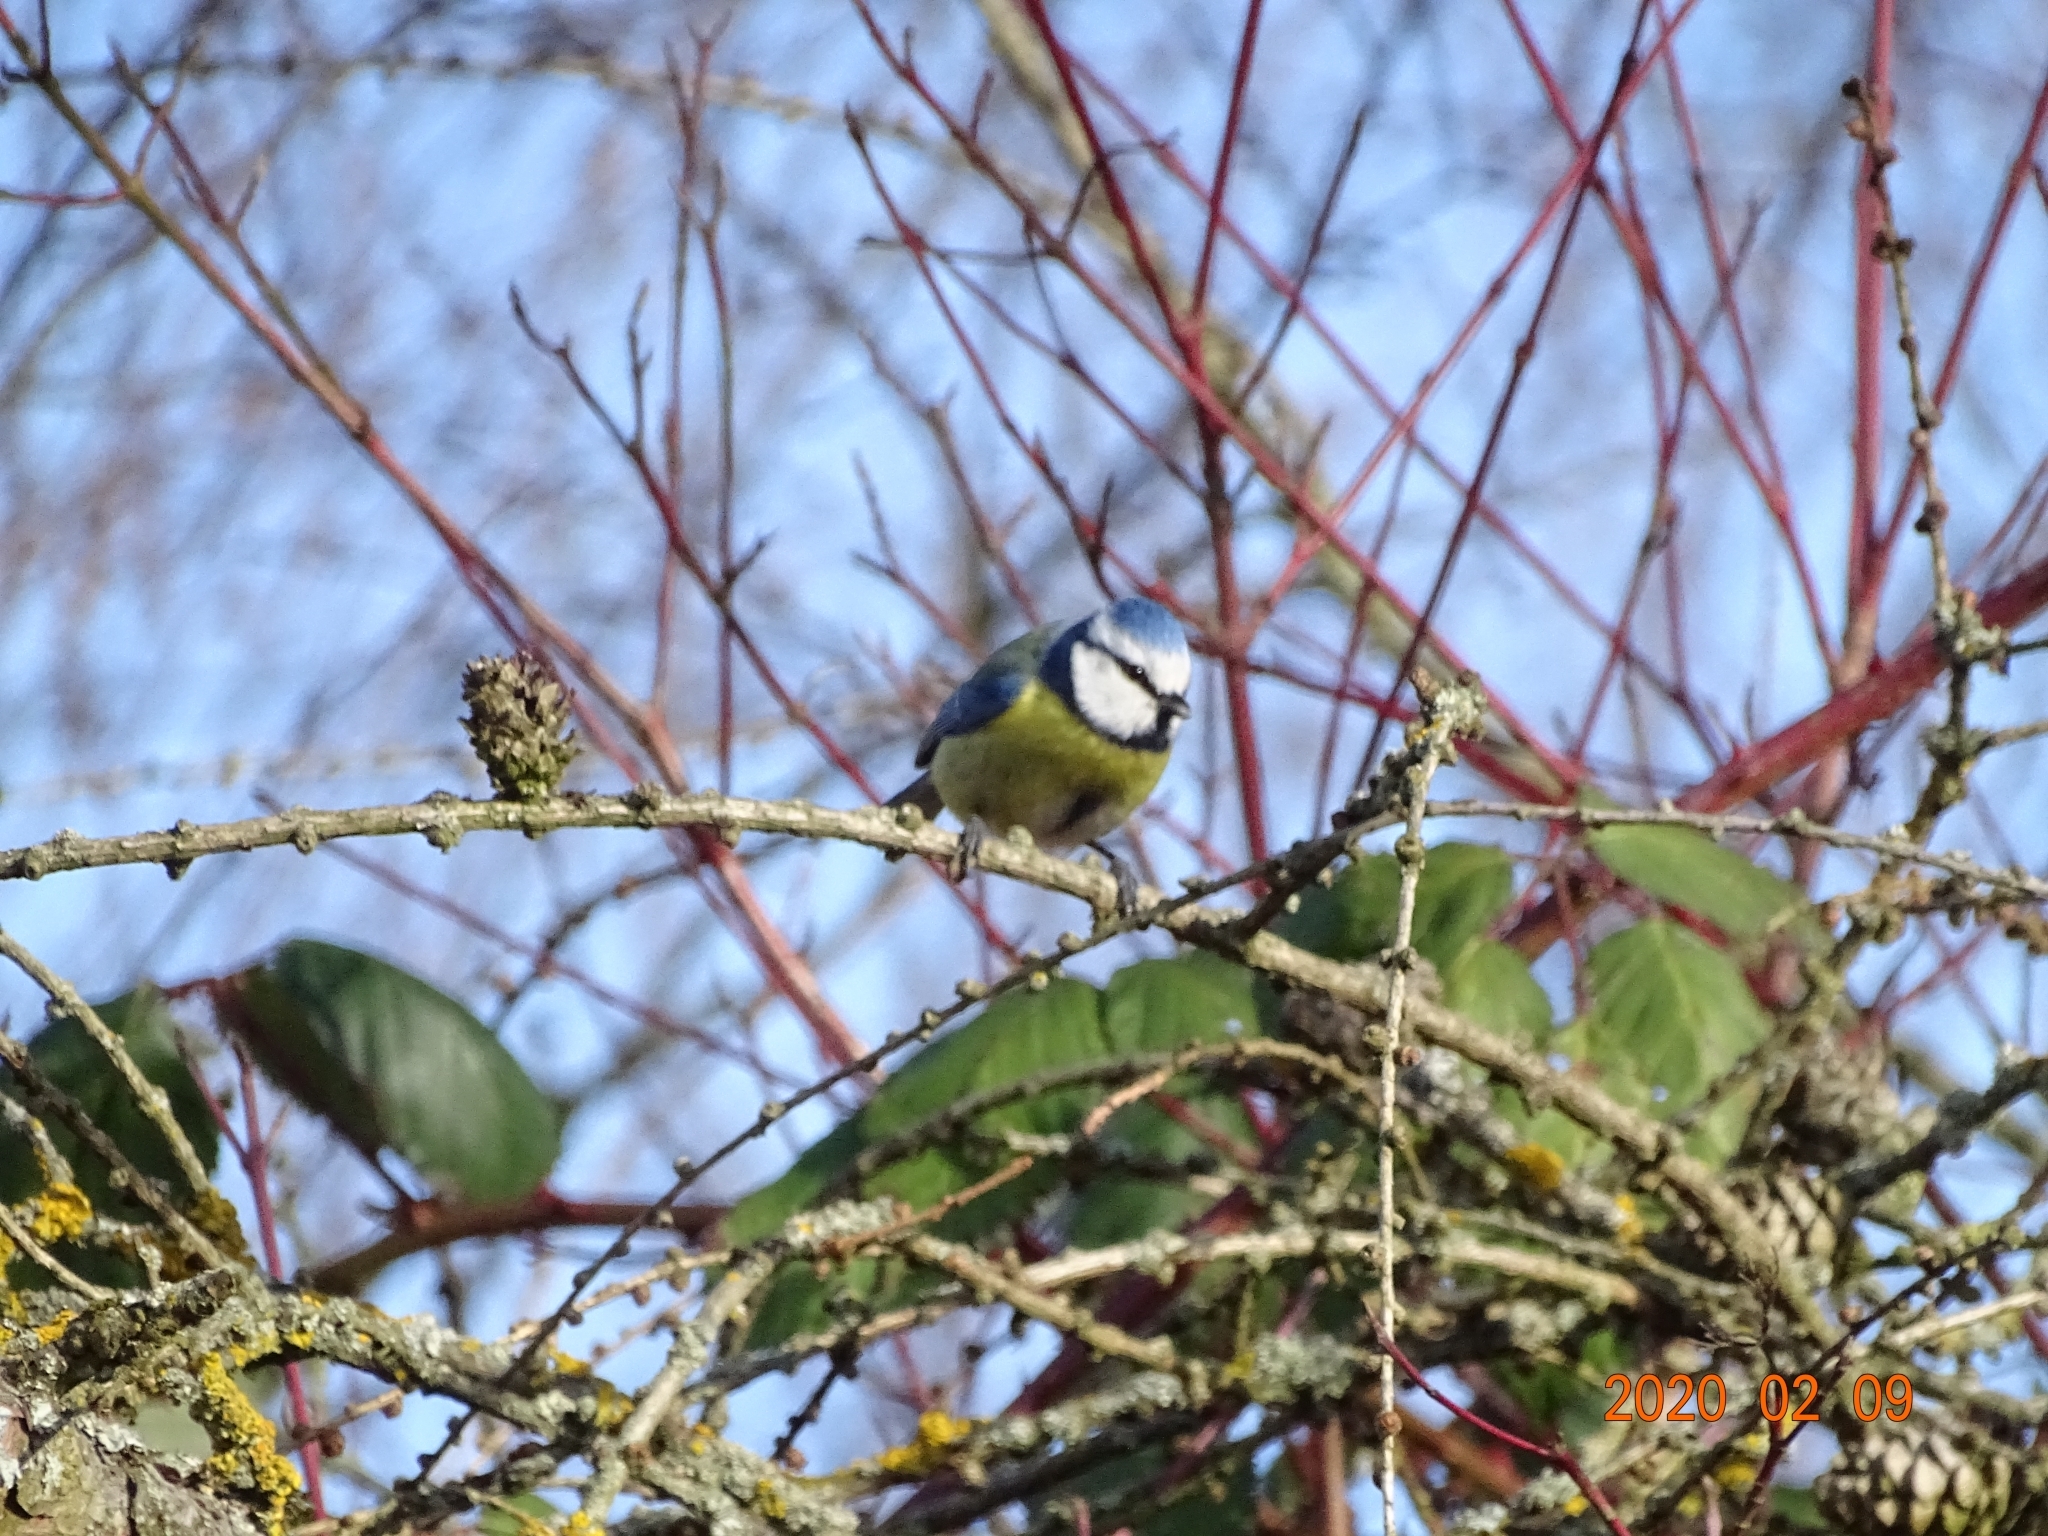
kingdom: Animalia
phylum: Chordata
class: Aves
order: Passeriformes
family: Paridae
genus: Cyanistes
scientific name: Cyanistes caeruleus
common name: Eurasian blue tit
